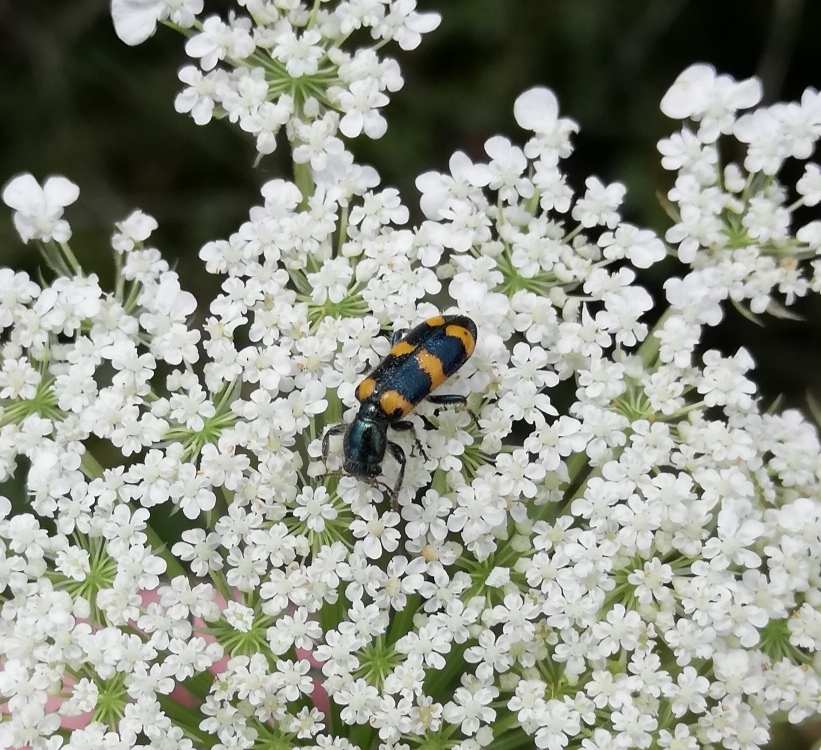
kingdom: Animalia
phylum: Arthropoda
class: Insecta
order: Coleoptera
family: Cleridae
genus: Trichodes
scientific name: Trichodes nutalli
